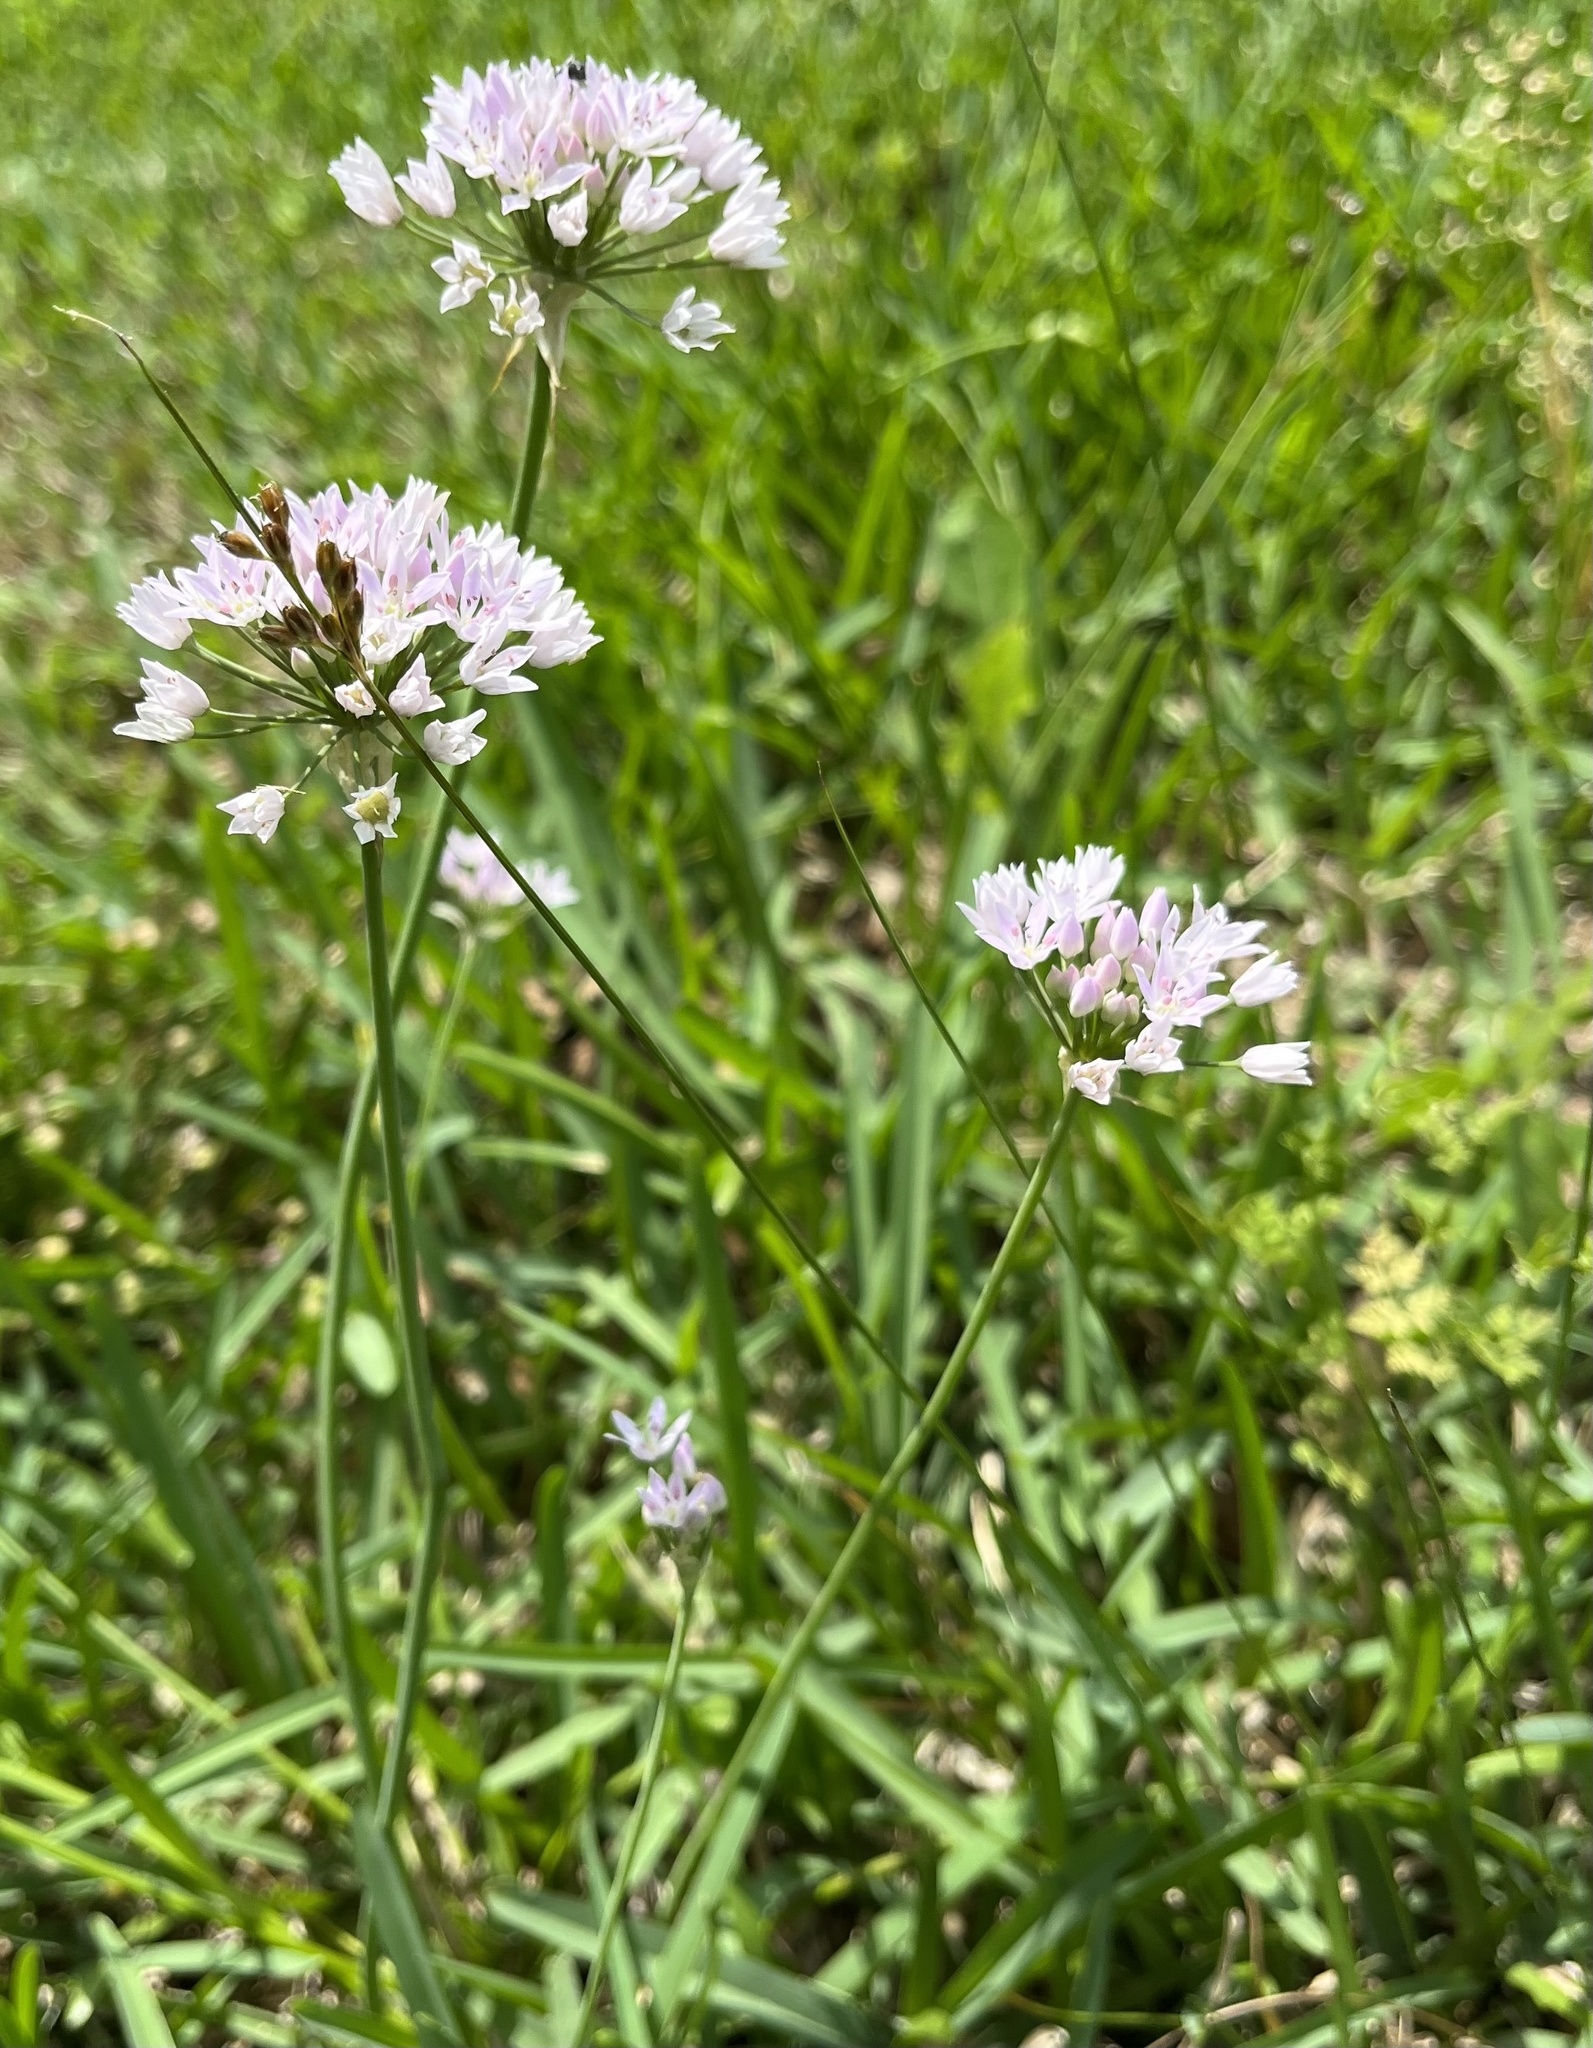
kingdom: Plantae
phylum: Tracheophyta
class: Liliopsida
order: Asparagales
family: Amaryllidaceae
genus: Allium
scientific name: Allium drummondii
